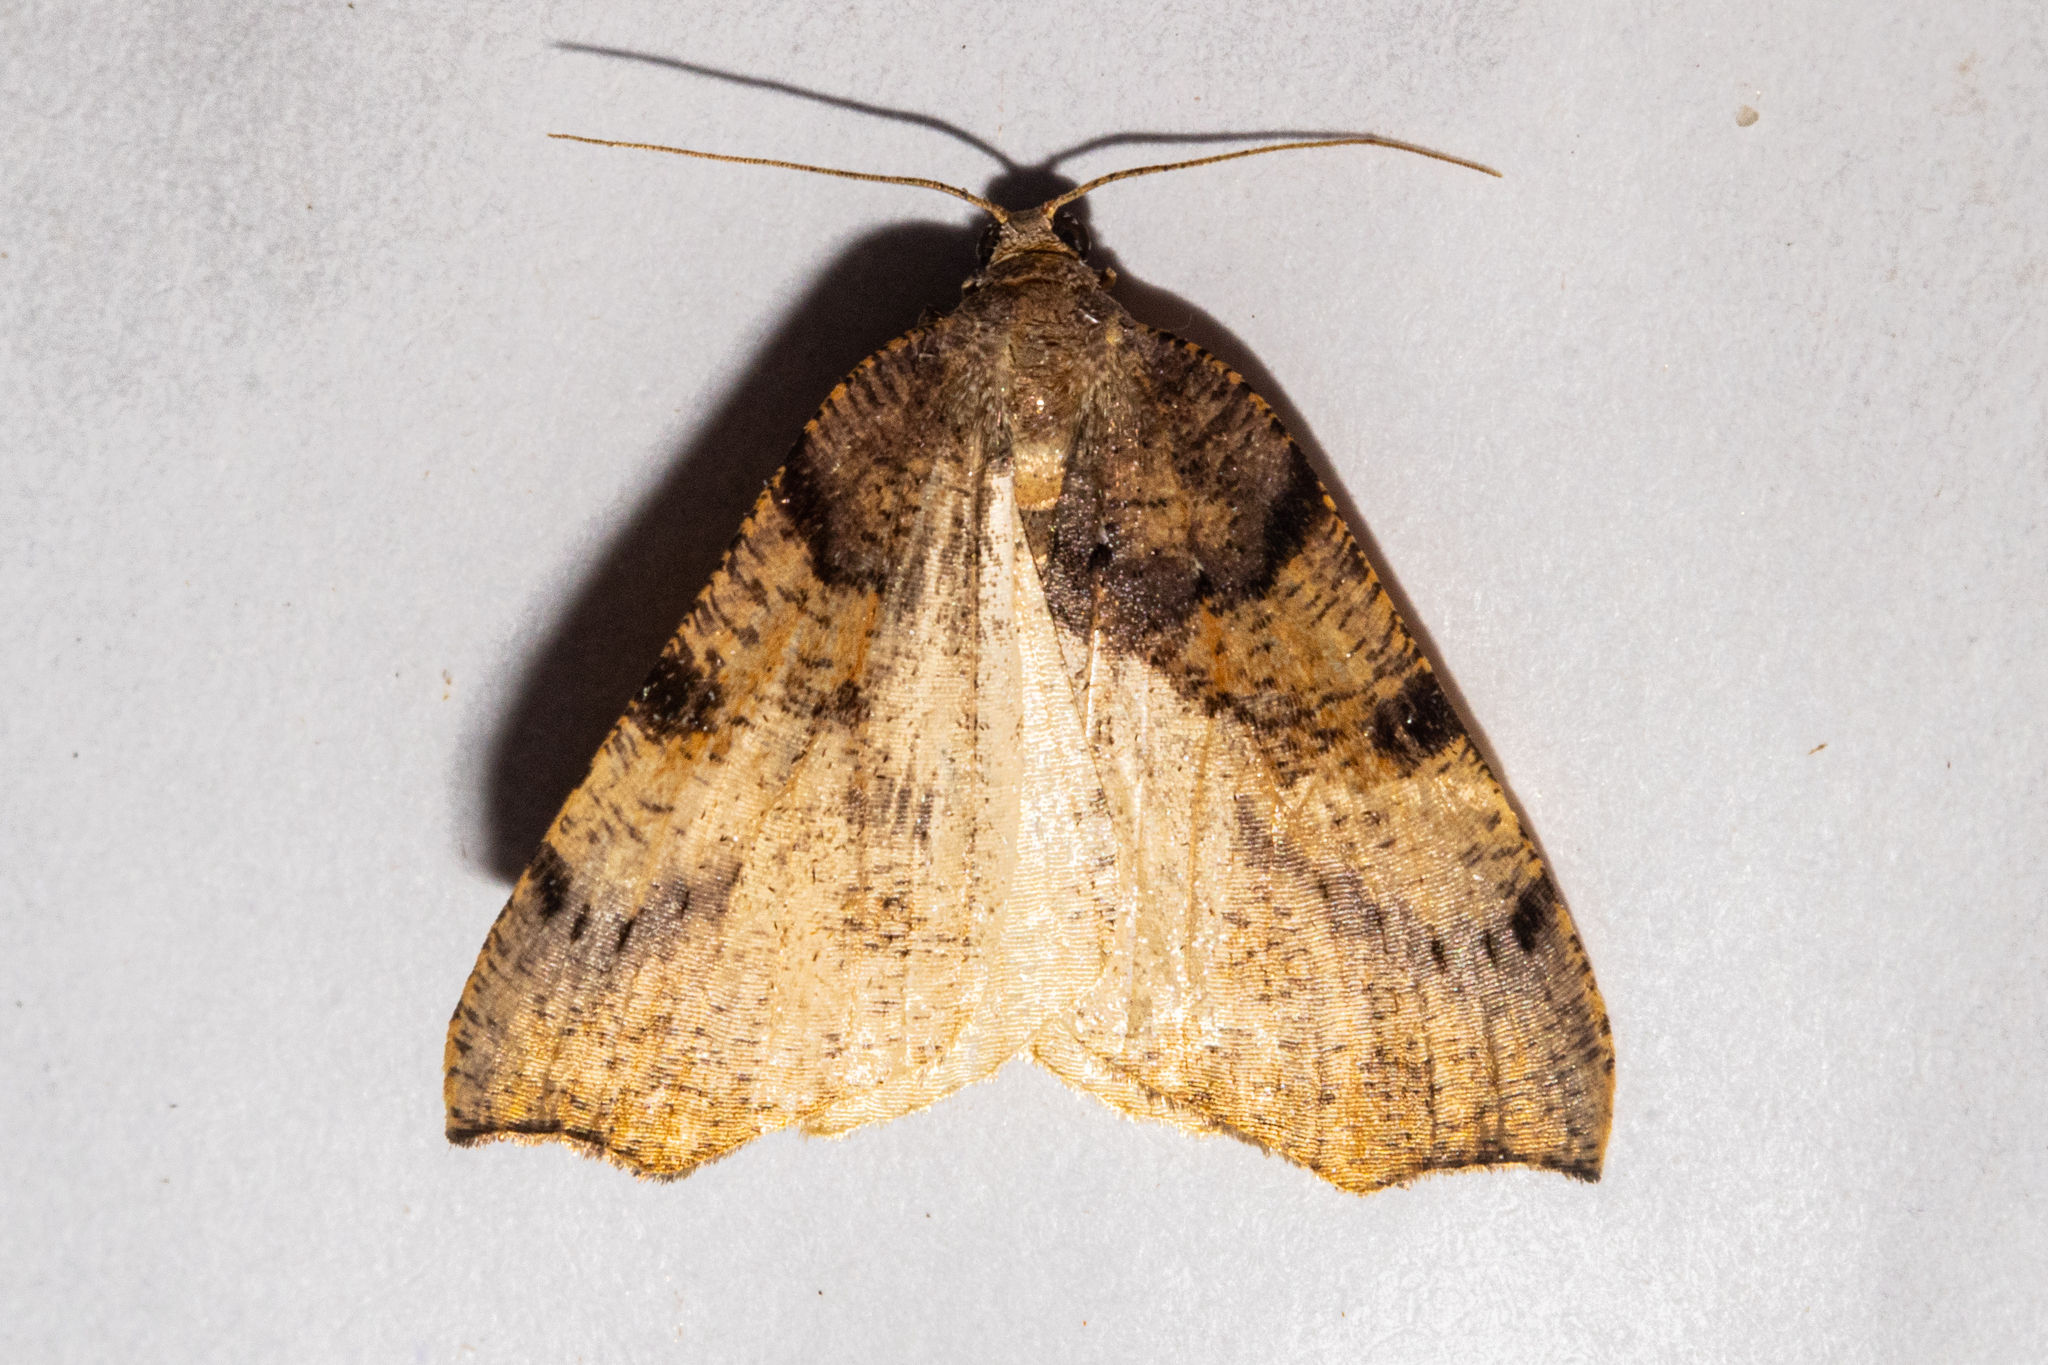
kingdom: Animalia
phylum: Arthropoda
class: Insecta
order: Lepidoptera
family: Geometridae
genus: Sestra
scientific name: Sestra flexata
